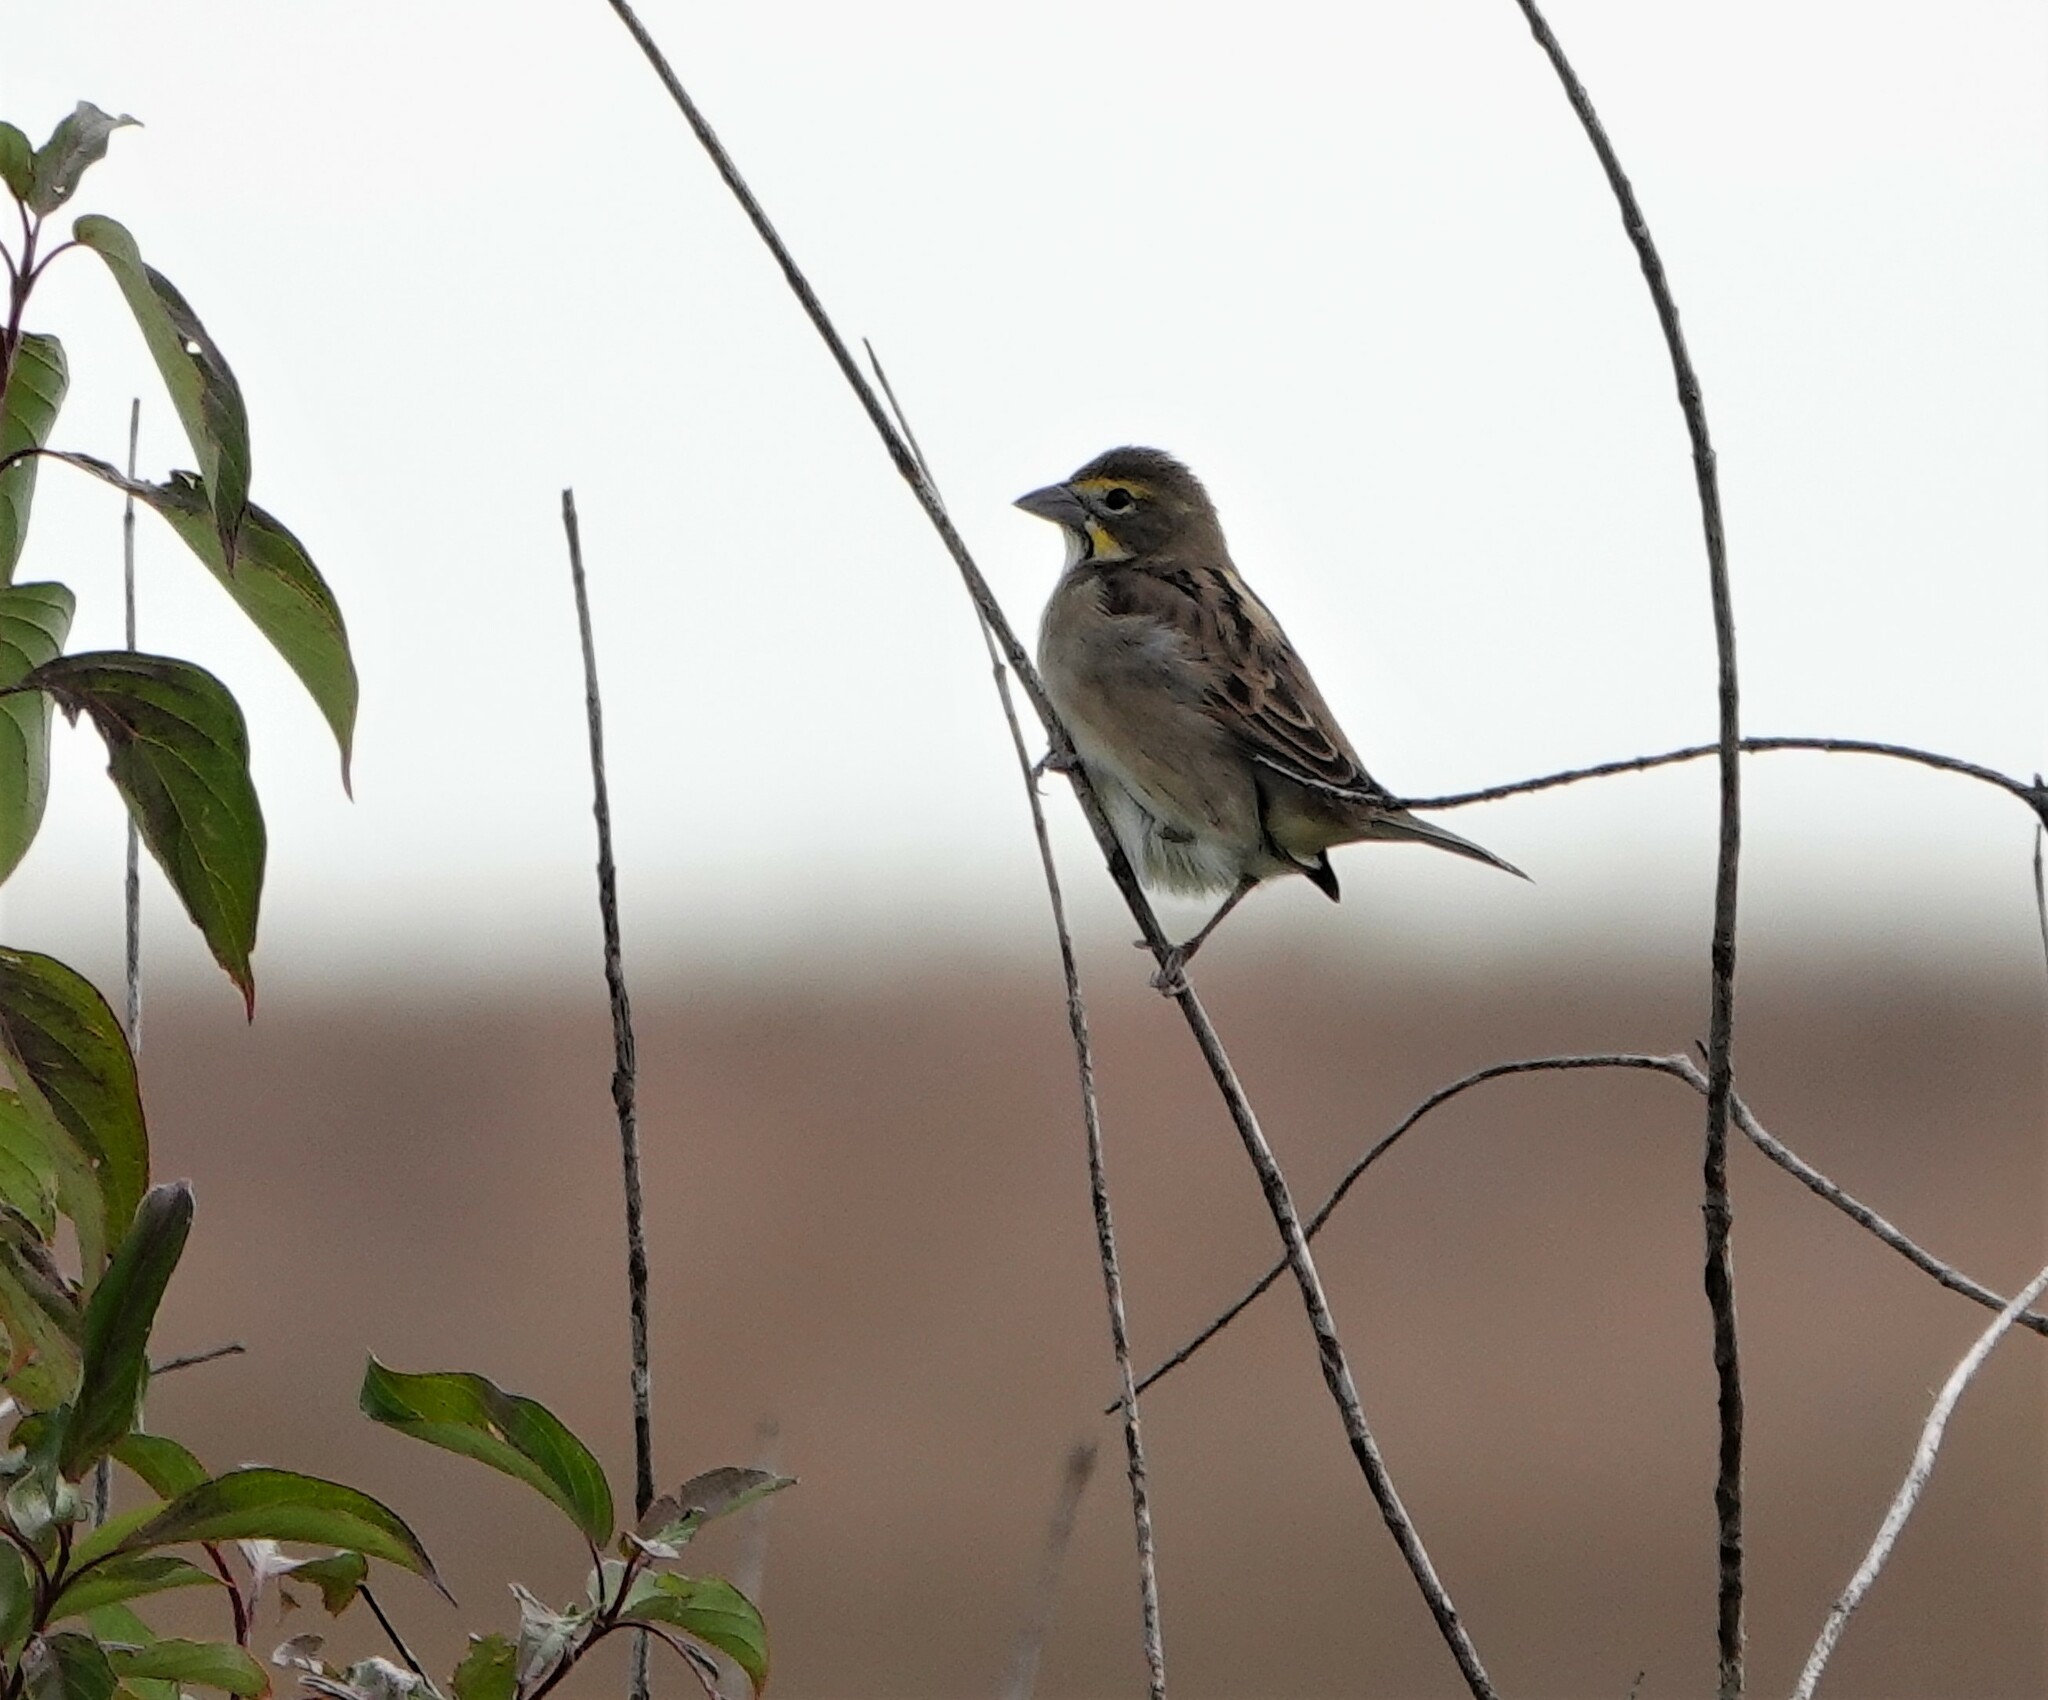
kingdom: Animalia
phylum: Chordata
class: Aves
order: Passeriformes
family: Cardinalidae
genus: Spiza
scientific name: Spiza americana
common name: Dickcissel
